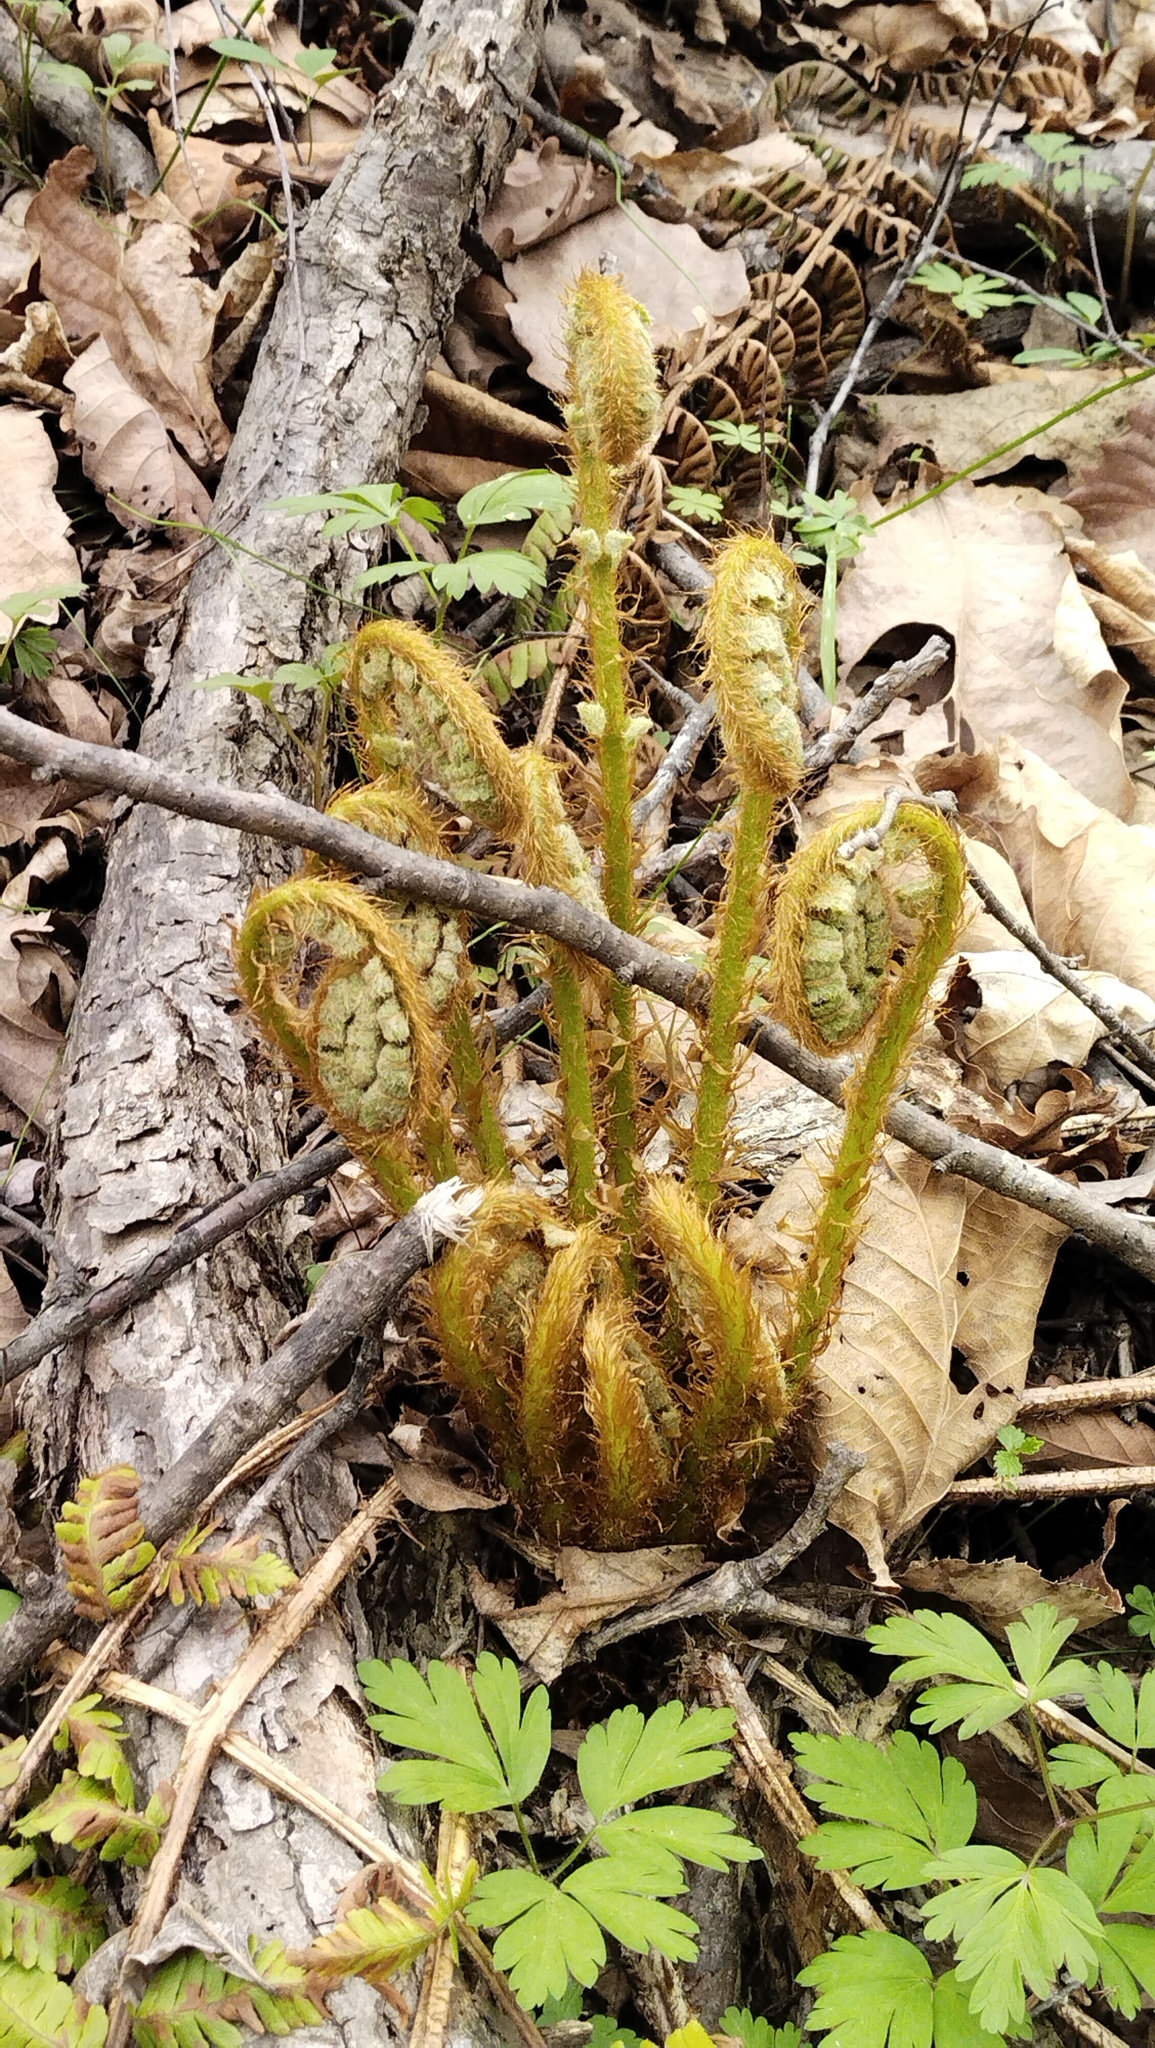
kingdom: Plantae
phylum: Tracheophyta
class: Polypodiopsida
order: Polypodiales
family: Dryopteridaceae
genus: Dryopteris
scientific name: Dryopteris crassirhizoma
